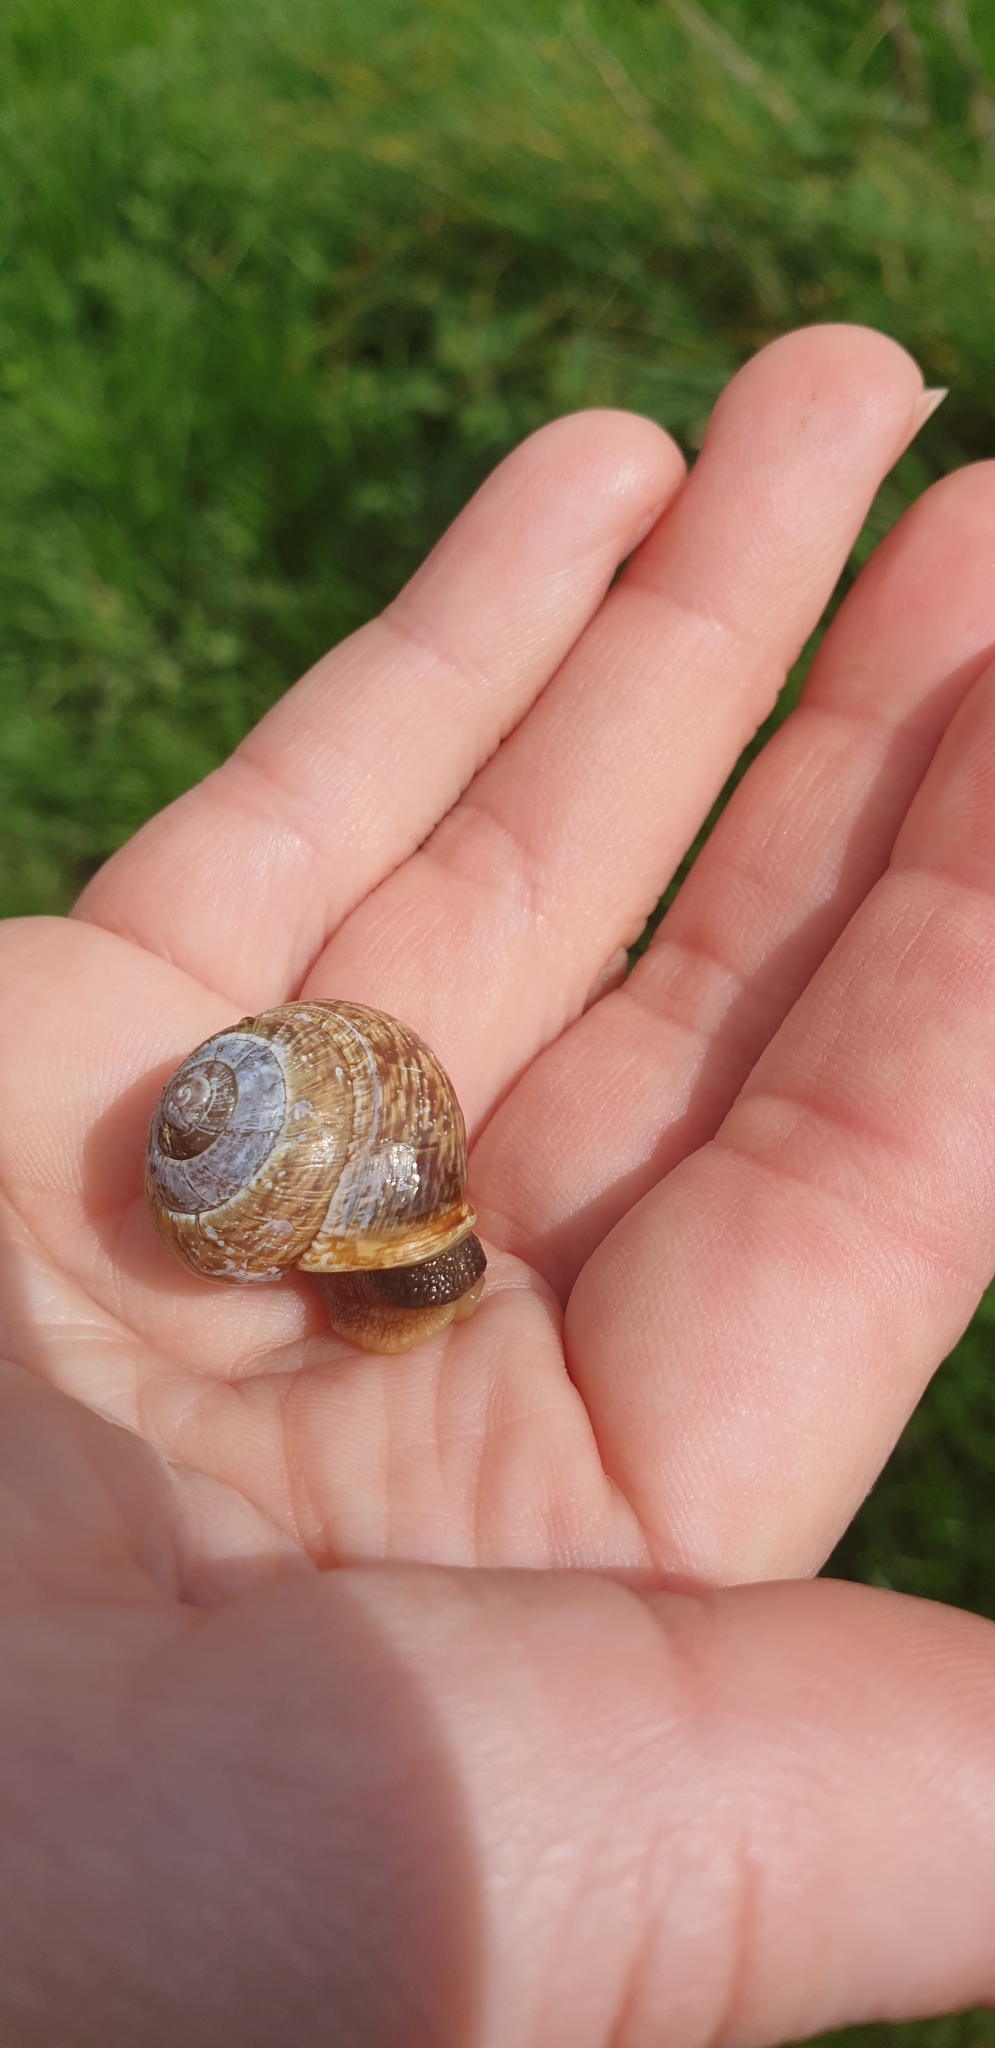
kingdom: Animalia
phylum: Mollusca
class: Gastropoda
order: Stylommatophora
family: Helicidae
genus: Arianta
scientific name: Arianta arbustorum
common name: Copse snail
